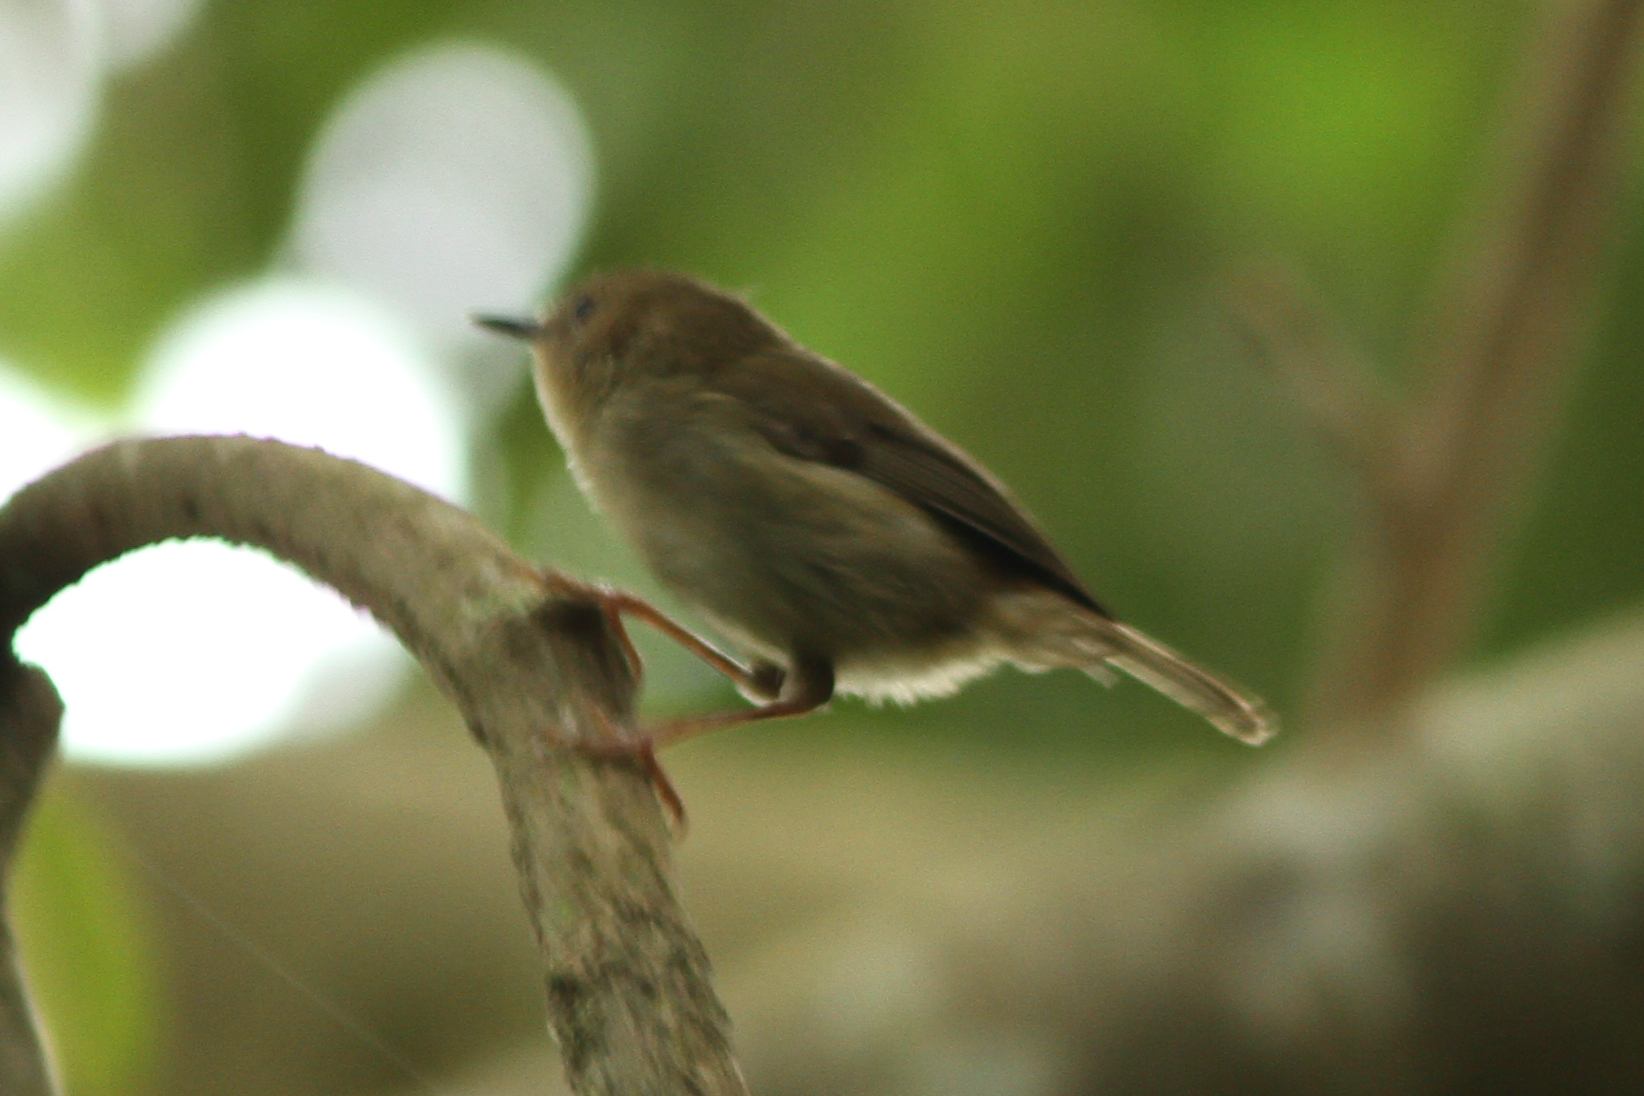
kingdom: Animalia
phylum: Chordata
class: Aves
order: Passeriformes
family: Acanthizidae
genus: Sericornis
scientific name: Sericornis magnirostra
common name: Large-billed scrubwren
